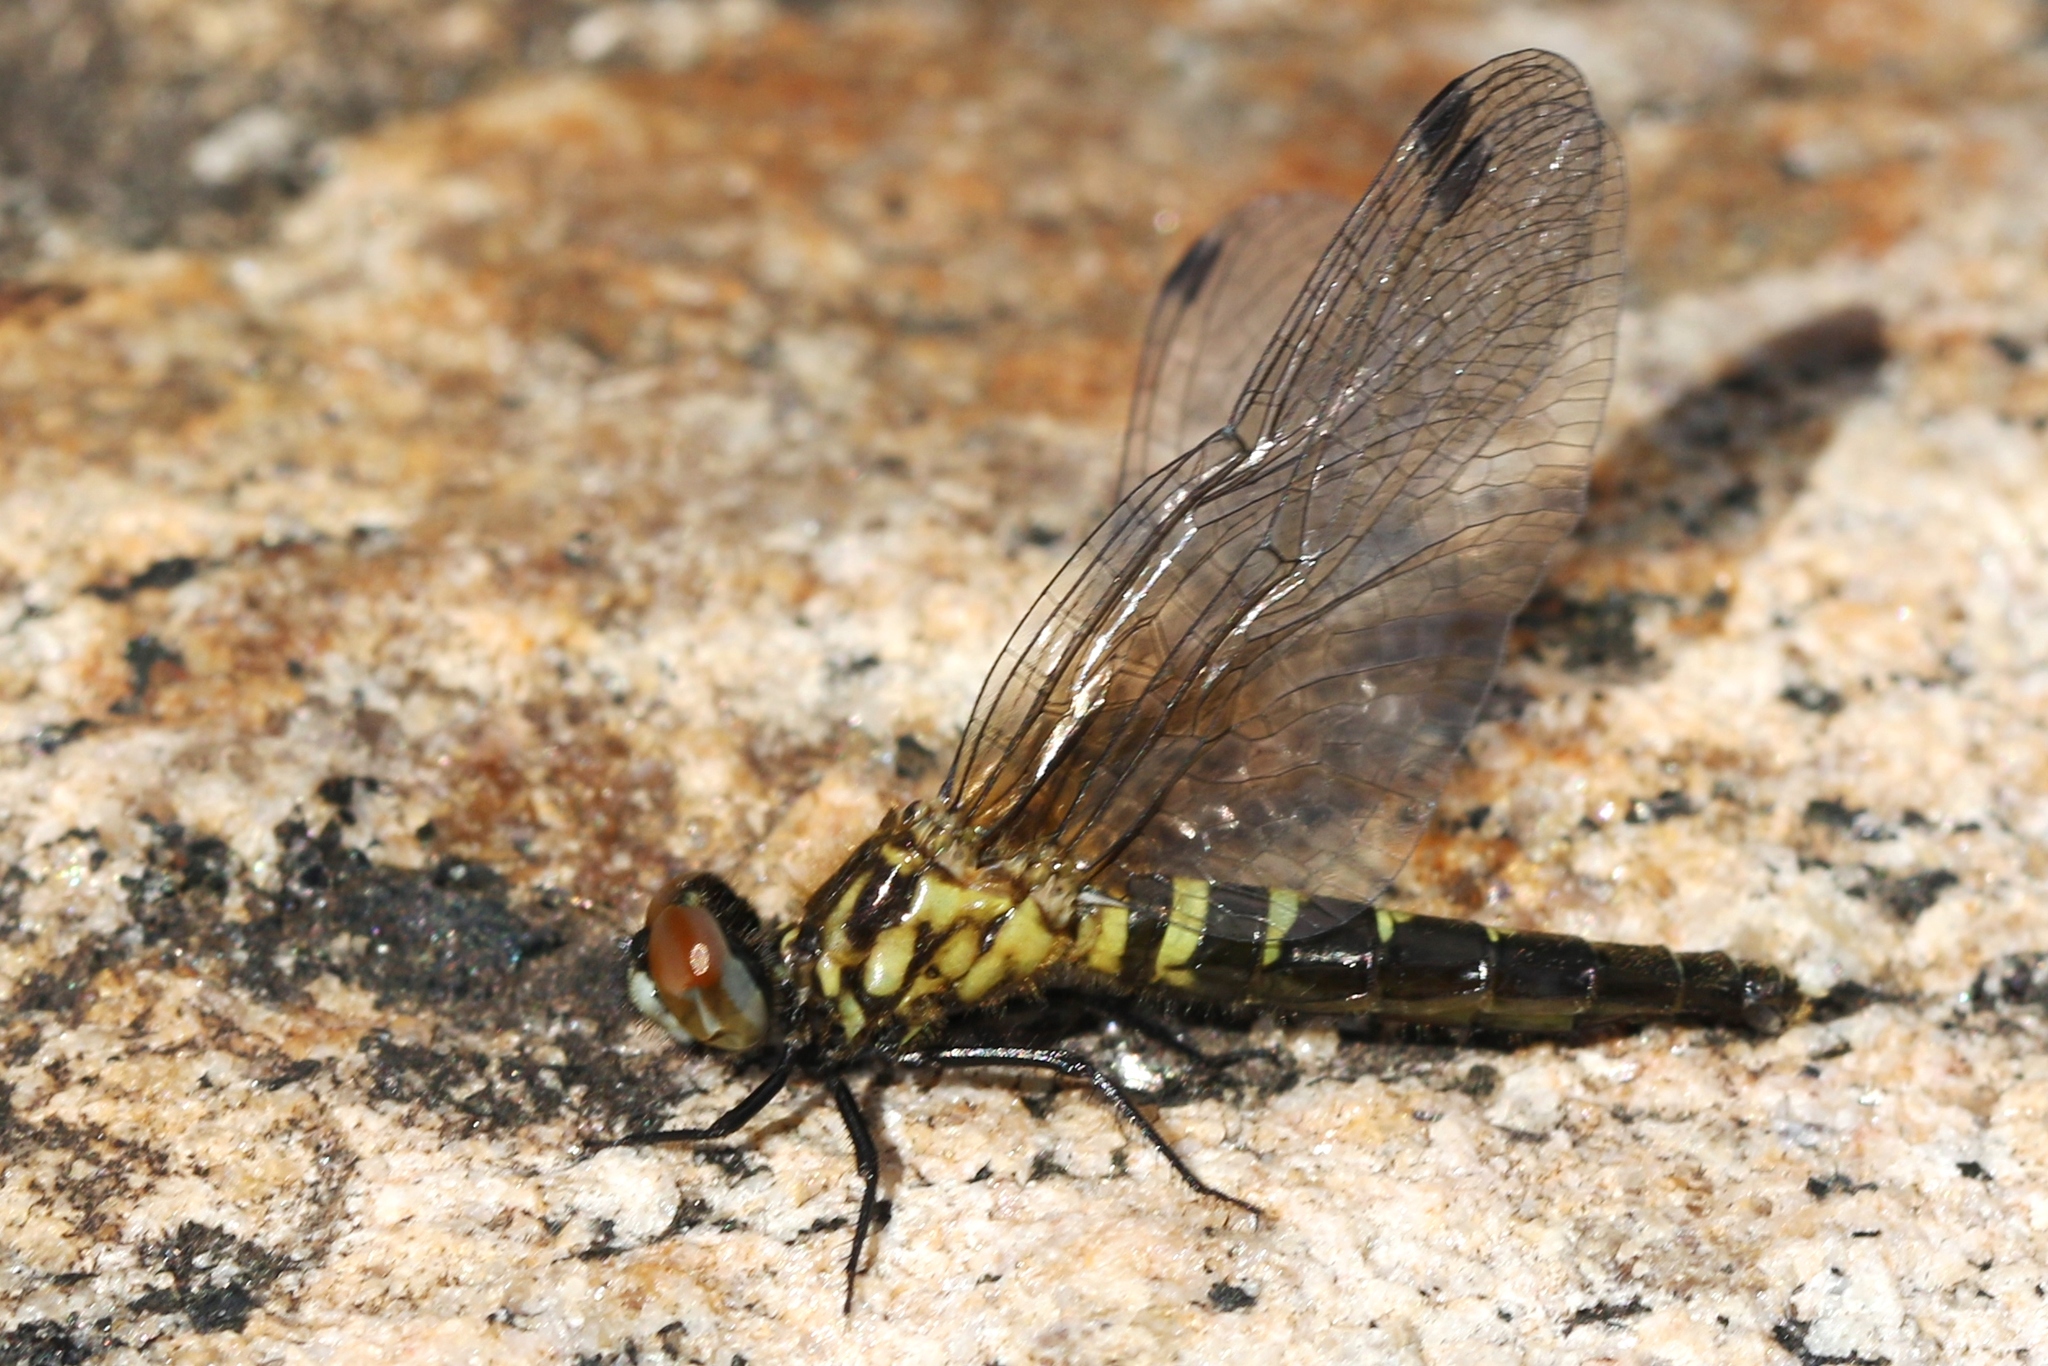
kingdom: Animalia
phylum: Arthropoda
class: Insecta
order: Odonata
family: Libellulidae
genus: Nannothemis
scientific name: Nannothemis bella
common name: Elfin skimmer
